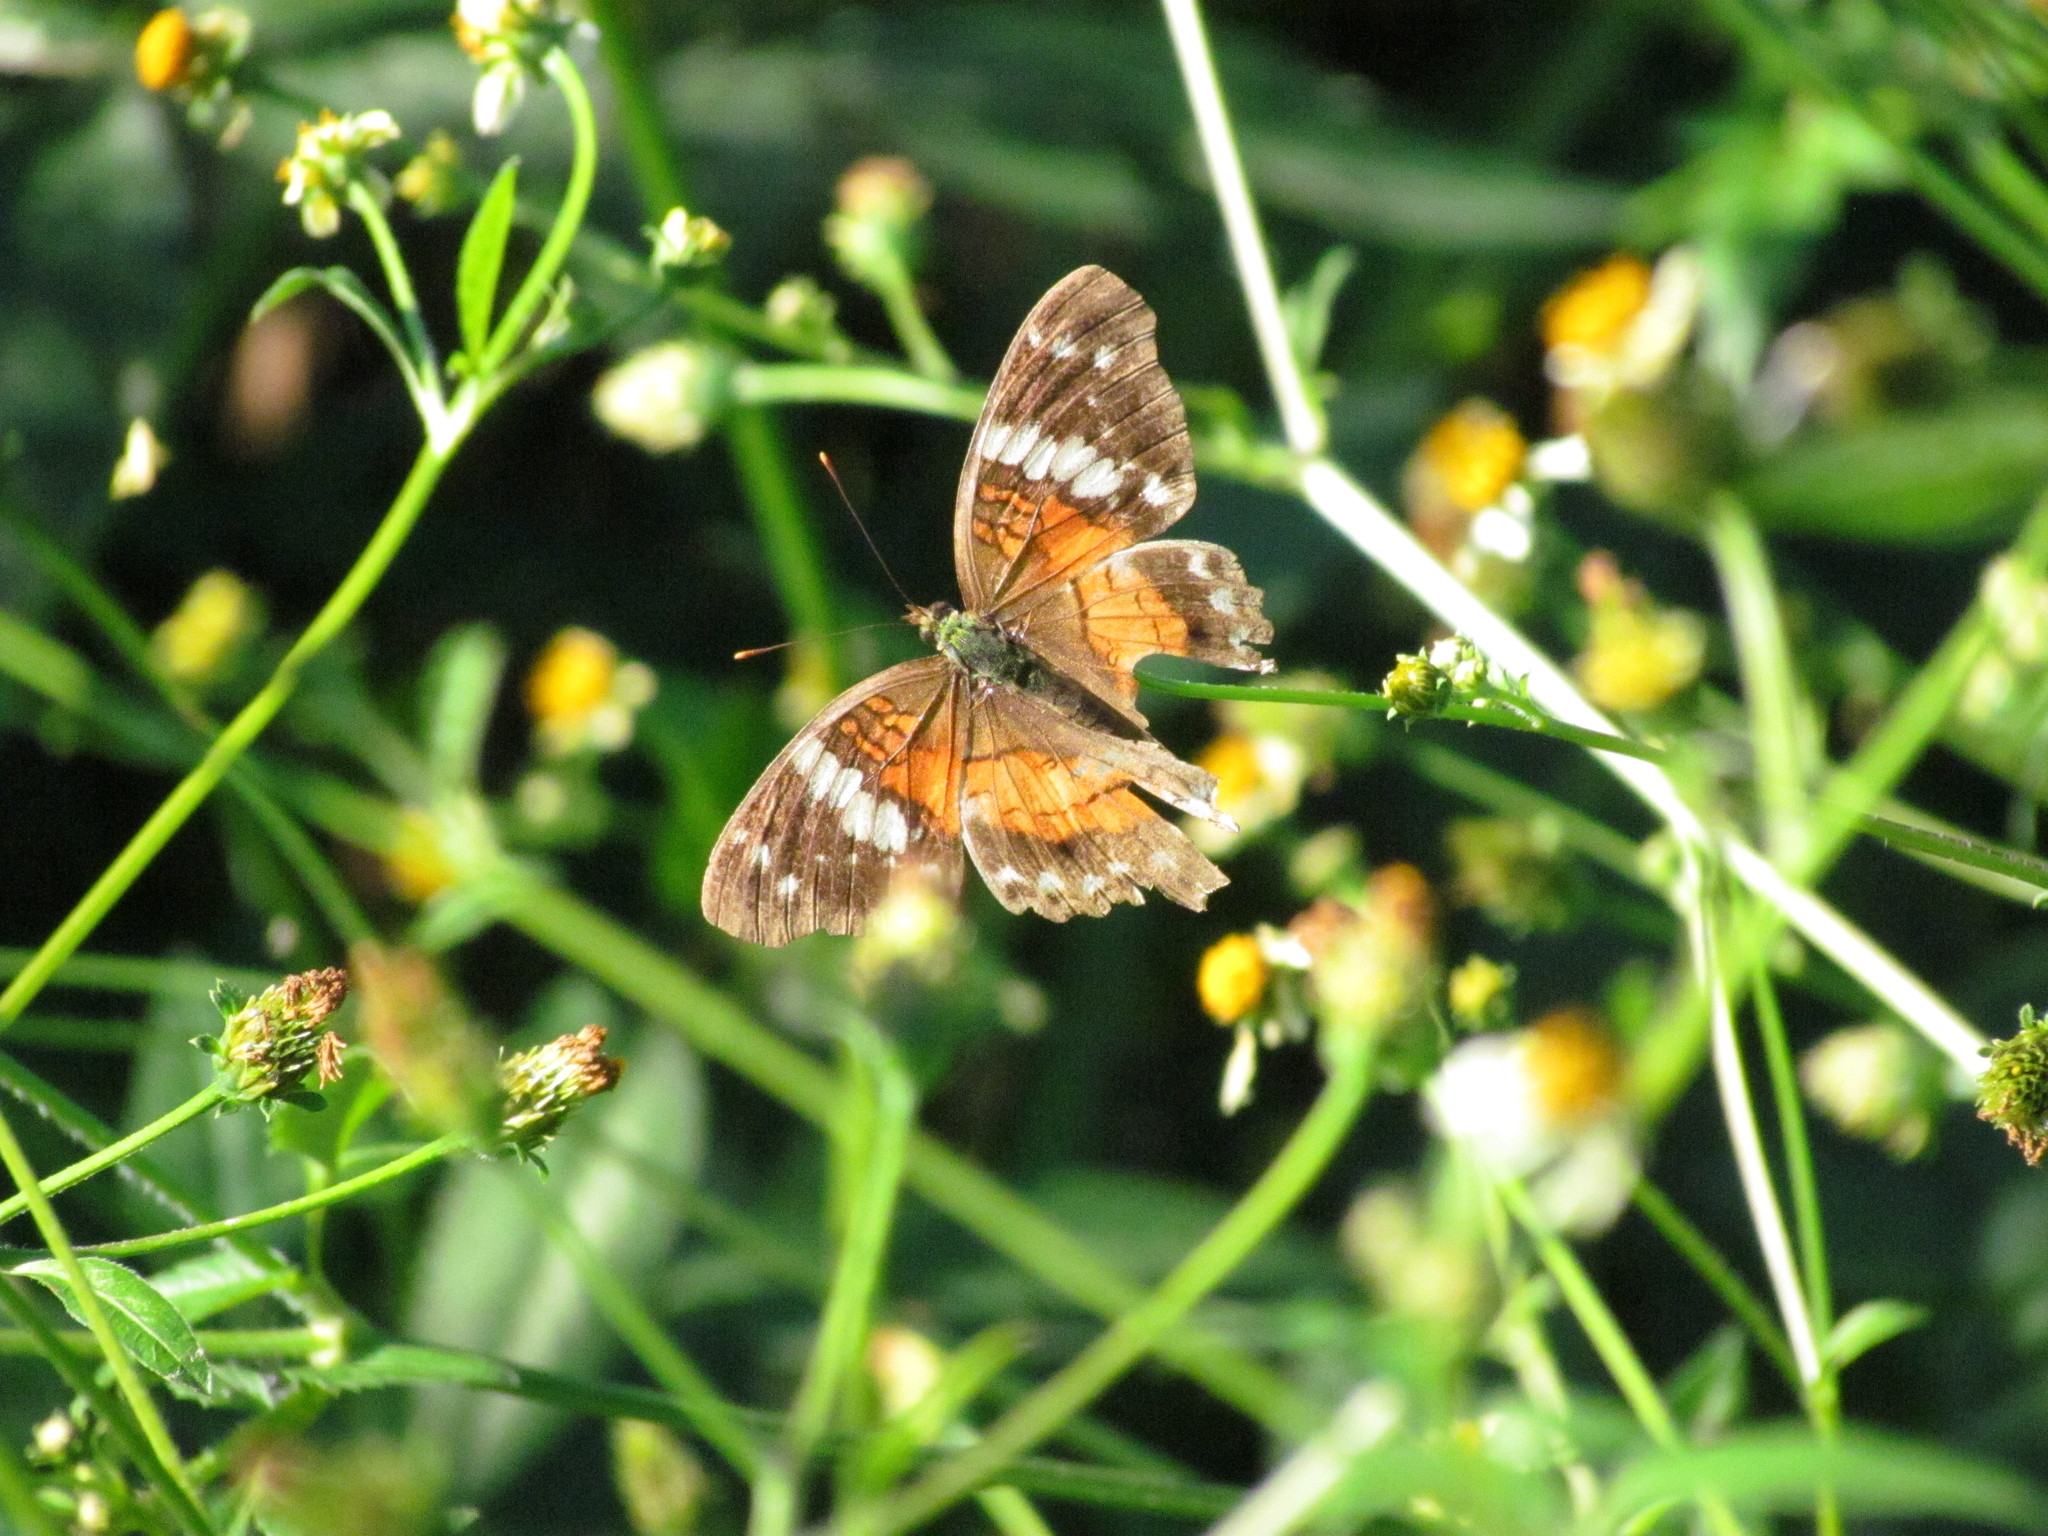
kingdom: Animalia
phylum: Arthropoda
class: Insecta
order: Lepidoptera
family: Nymphalidae
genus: Anartia
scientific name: Anartia amathea
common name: Red peacock
